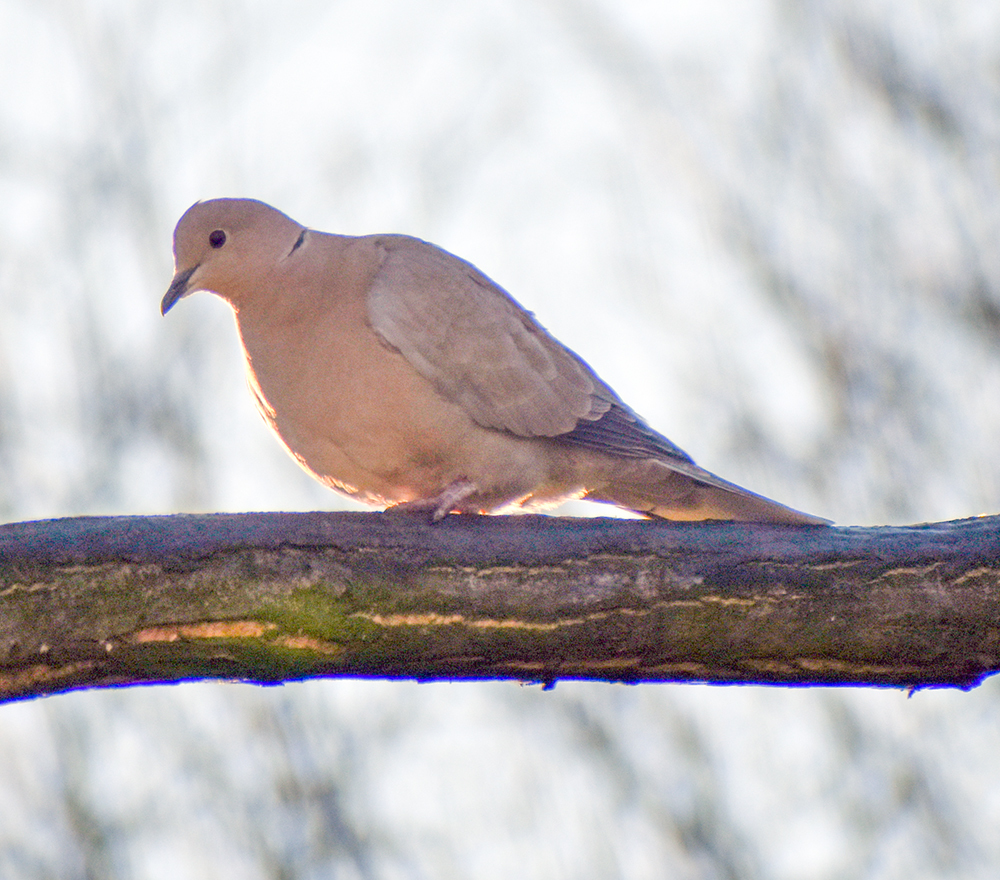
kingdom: Animalia
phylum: Chordata
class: Aves
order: Columbiformes
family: Columbidae
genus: Streptopelia
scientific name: Streptopelia decaocto
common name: Eurasian collared dove
